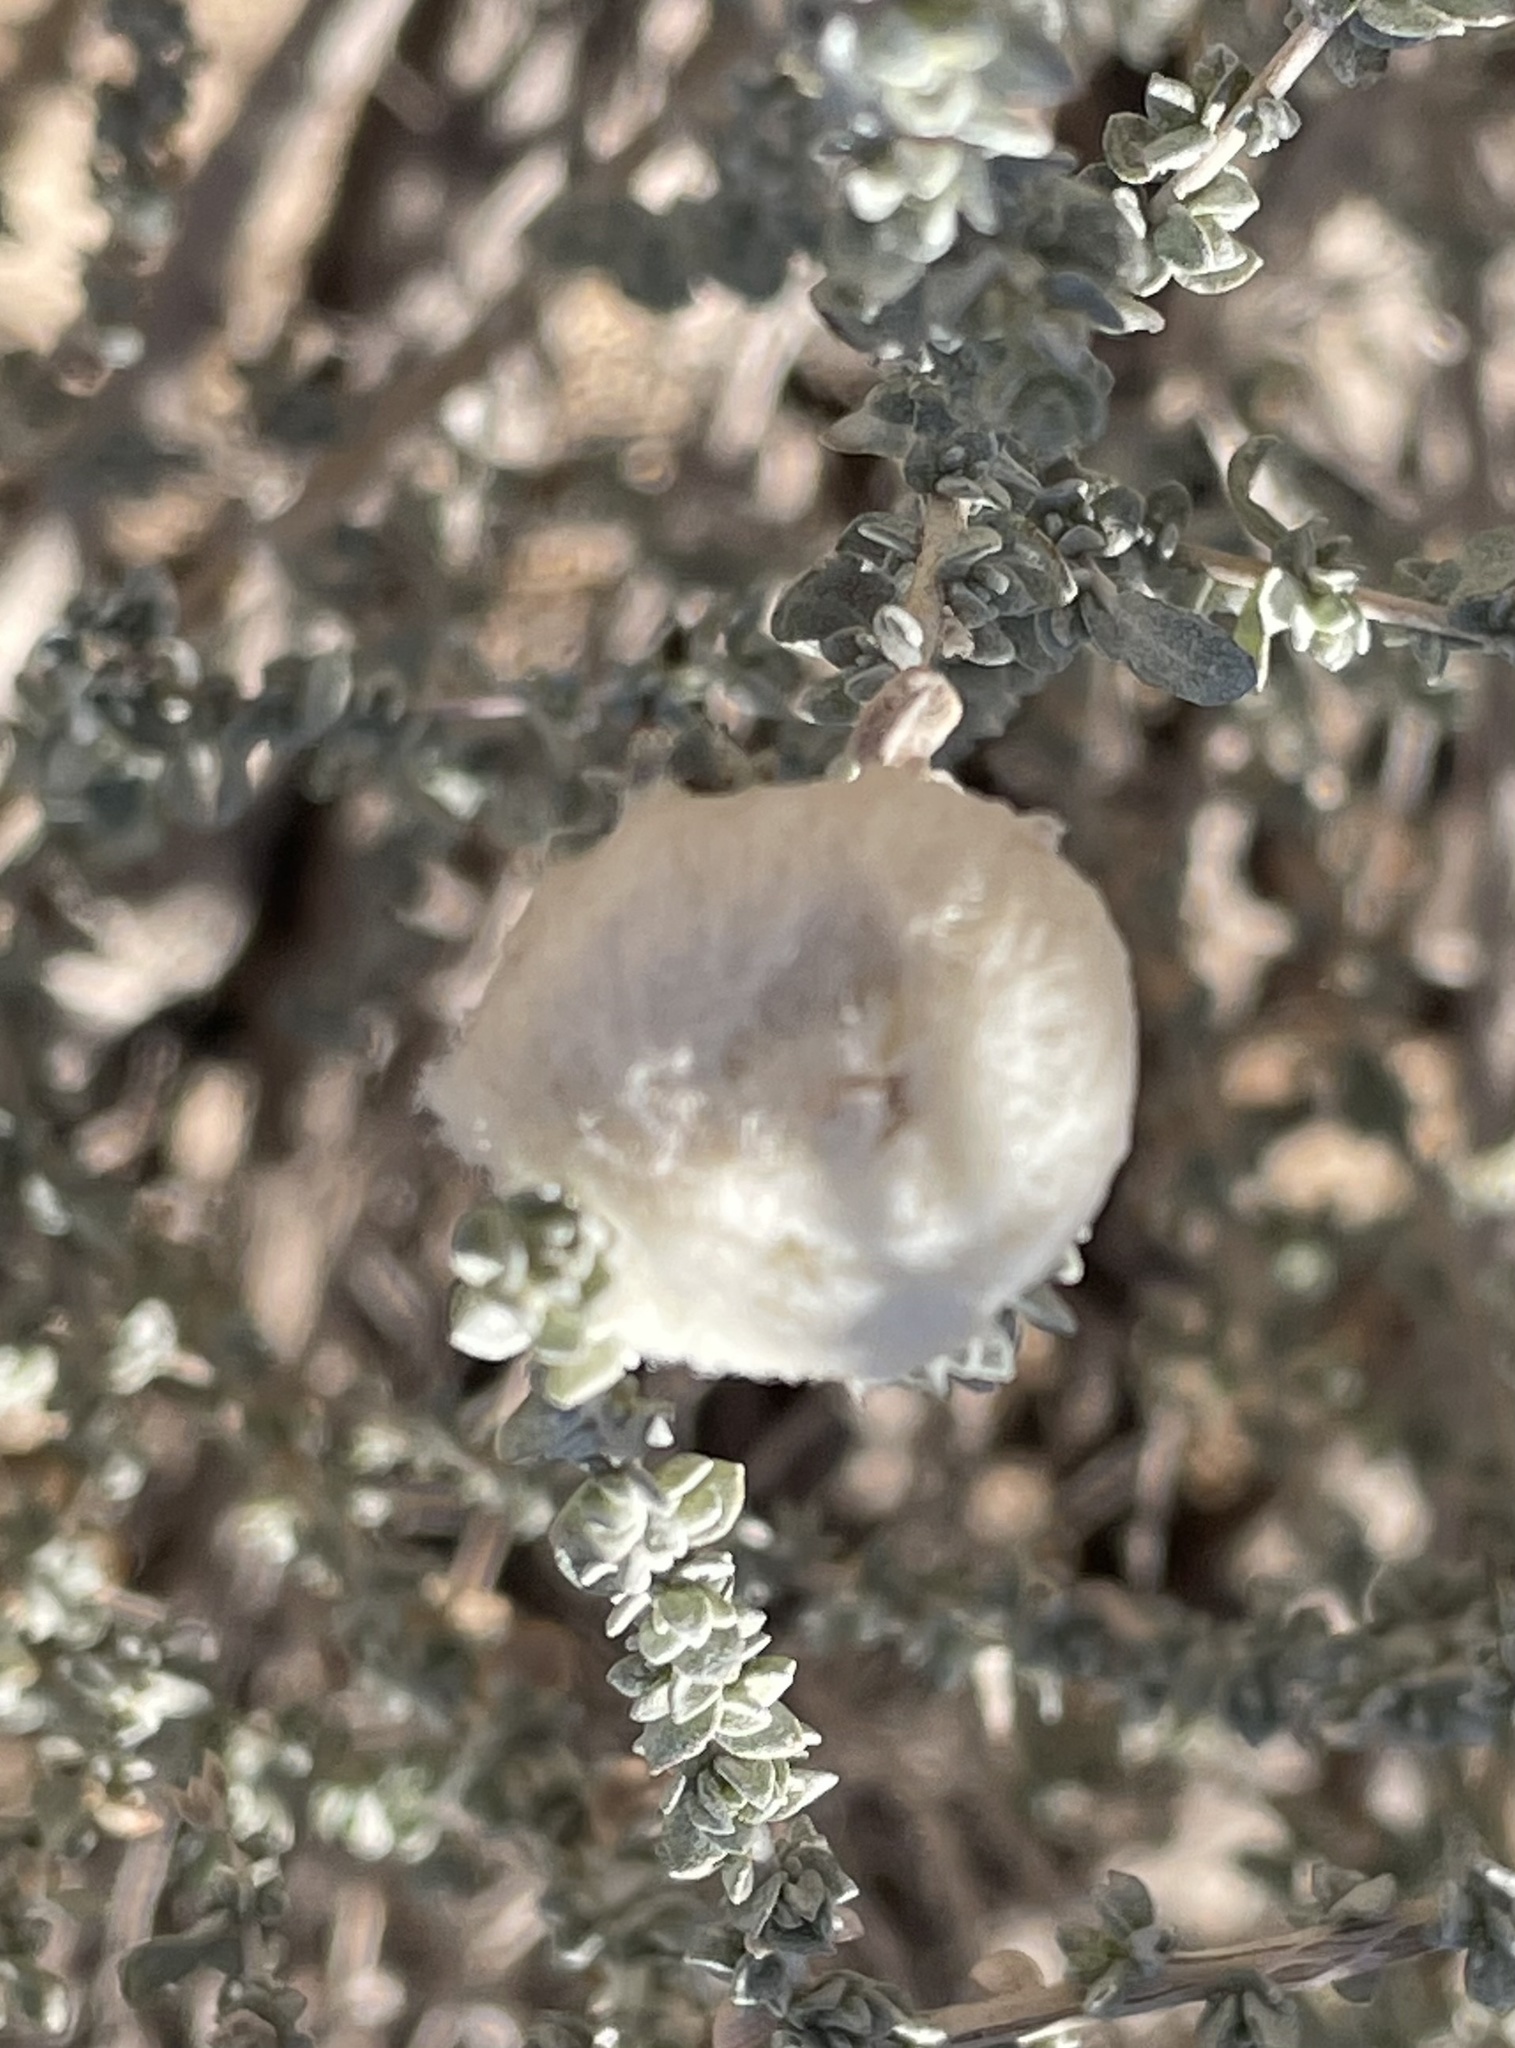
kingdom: Animalia
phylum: Arthropoda
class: Insecta
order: Diptera
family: Cecidomyiidae
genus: Asphondylia
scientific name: Asphondylia floccosa
